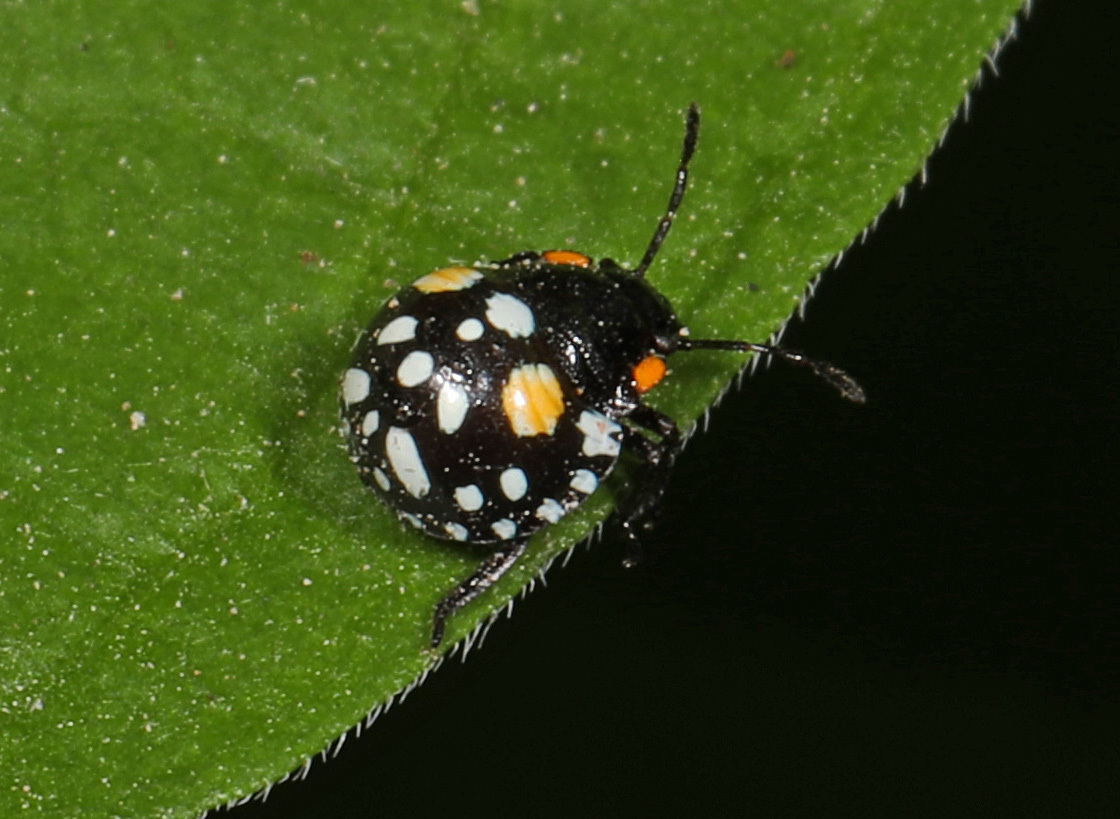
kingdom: Animalia
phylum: Arthropoda
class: Insecta
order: Hemiptera
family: Pentatomidae
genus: Acrosternum
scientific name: Acrosternum marginatum
